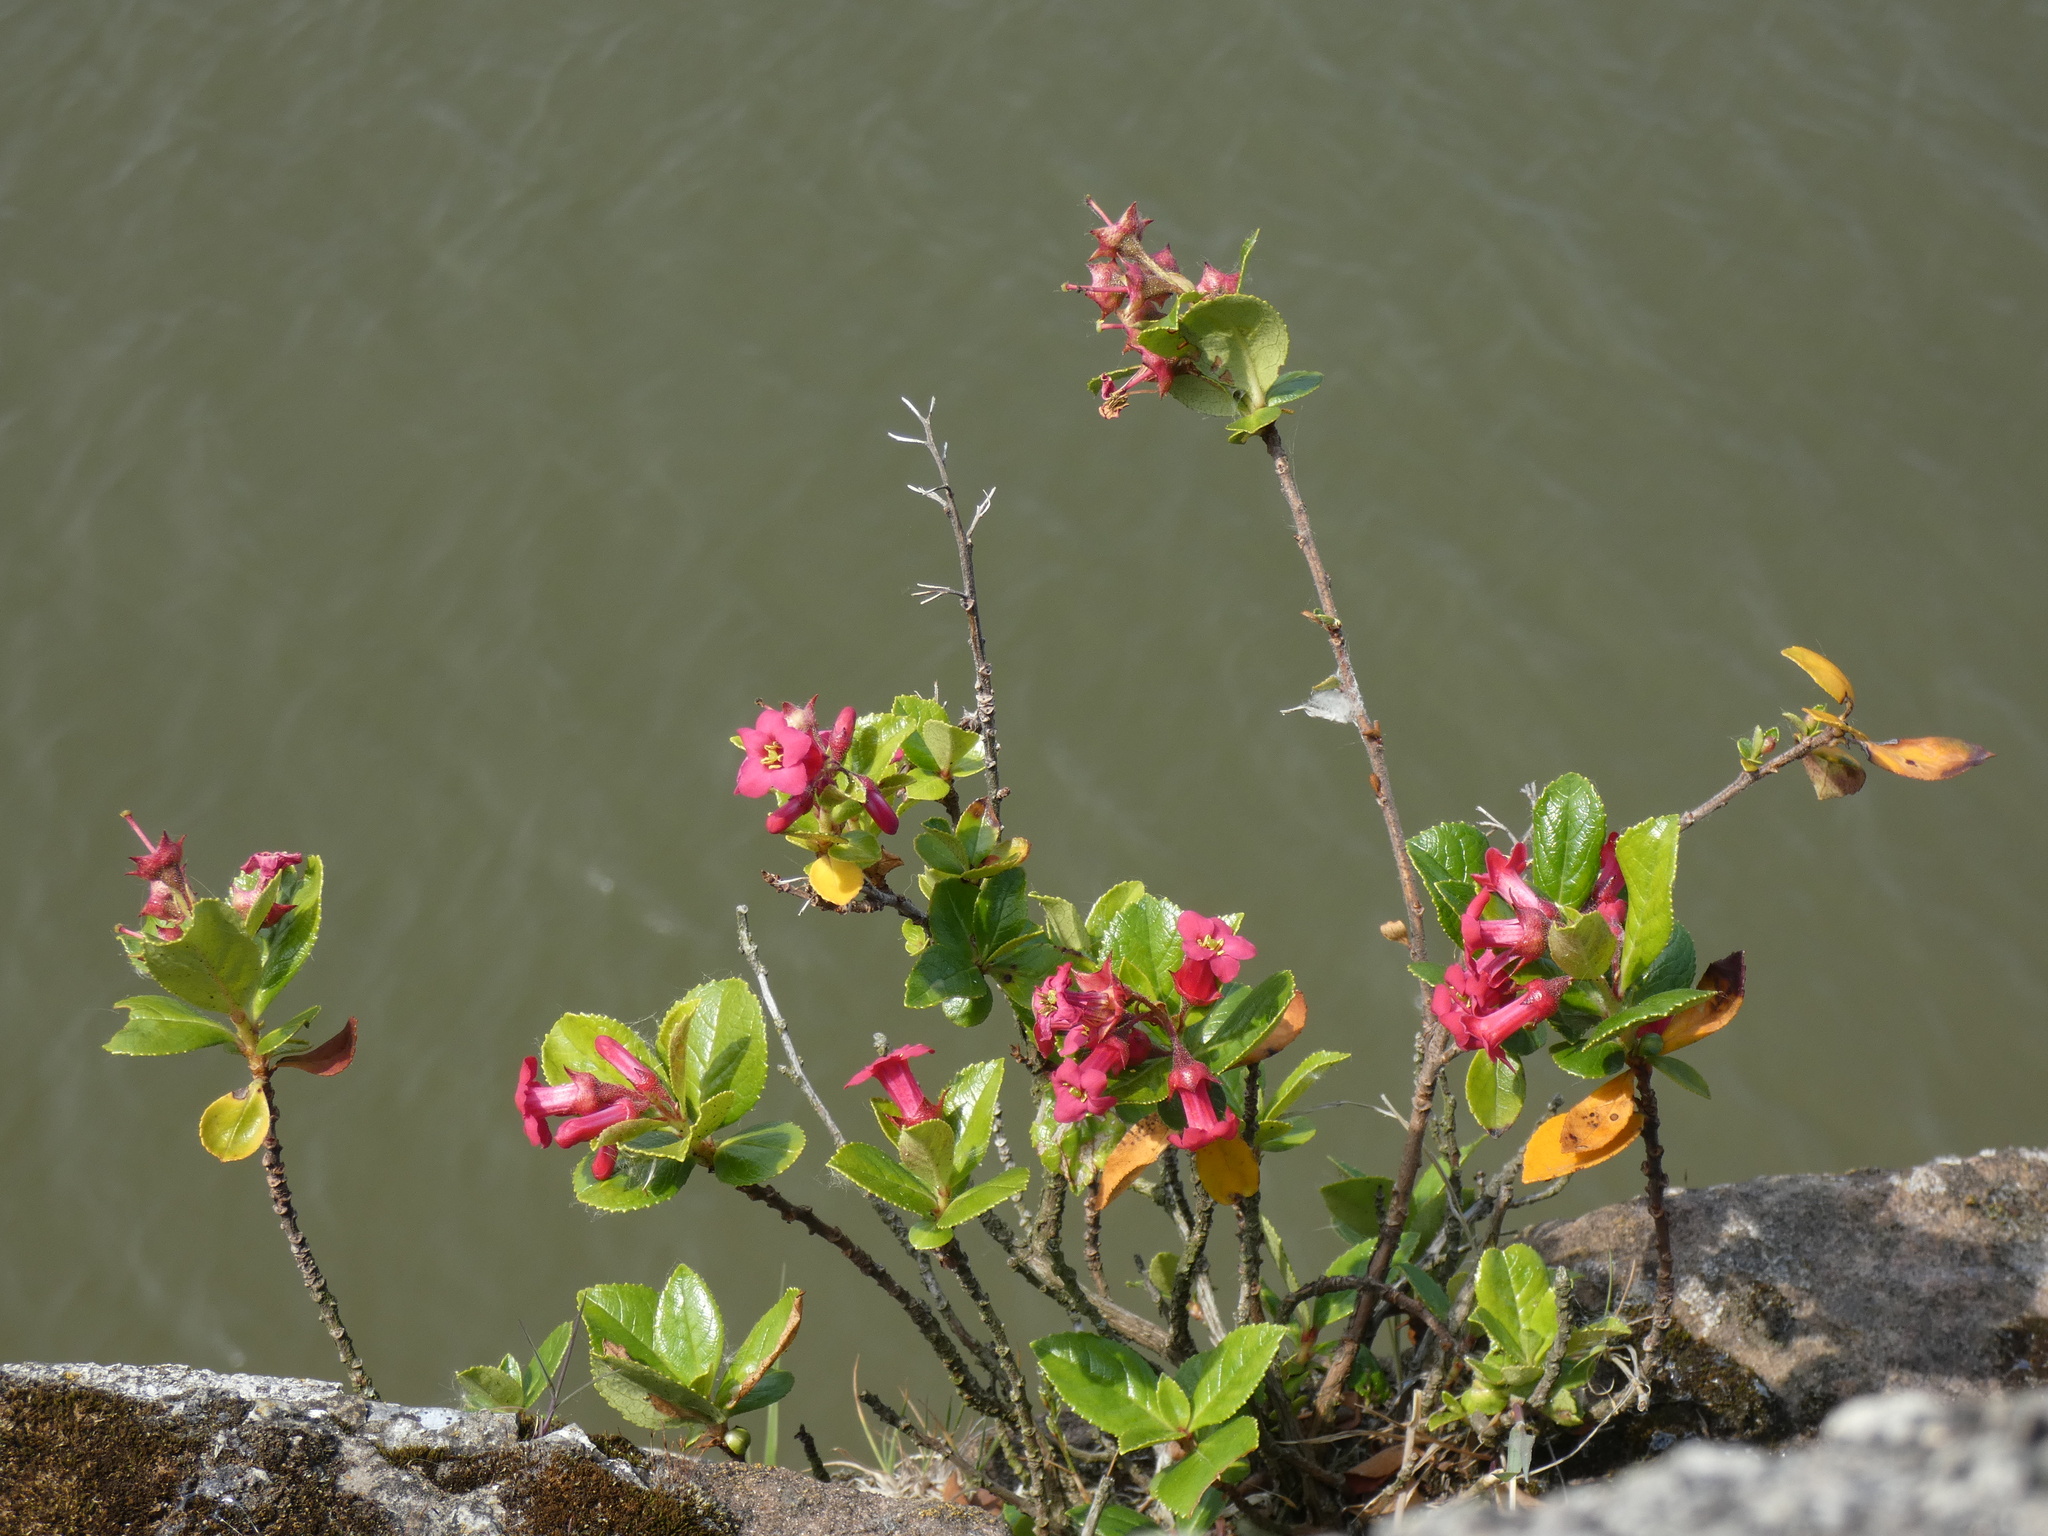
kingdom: Plantae
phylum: Tracheophyta
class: Magnoliopsida
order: Escalloniales
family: Escalloniaceae
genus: Escallonia
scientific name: Escallonia rubra
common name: Redclaws
